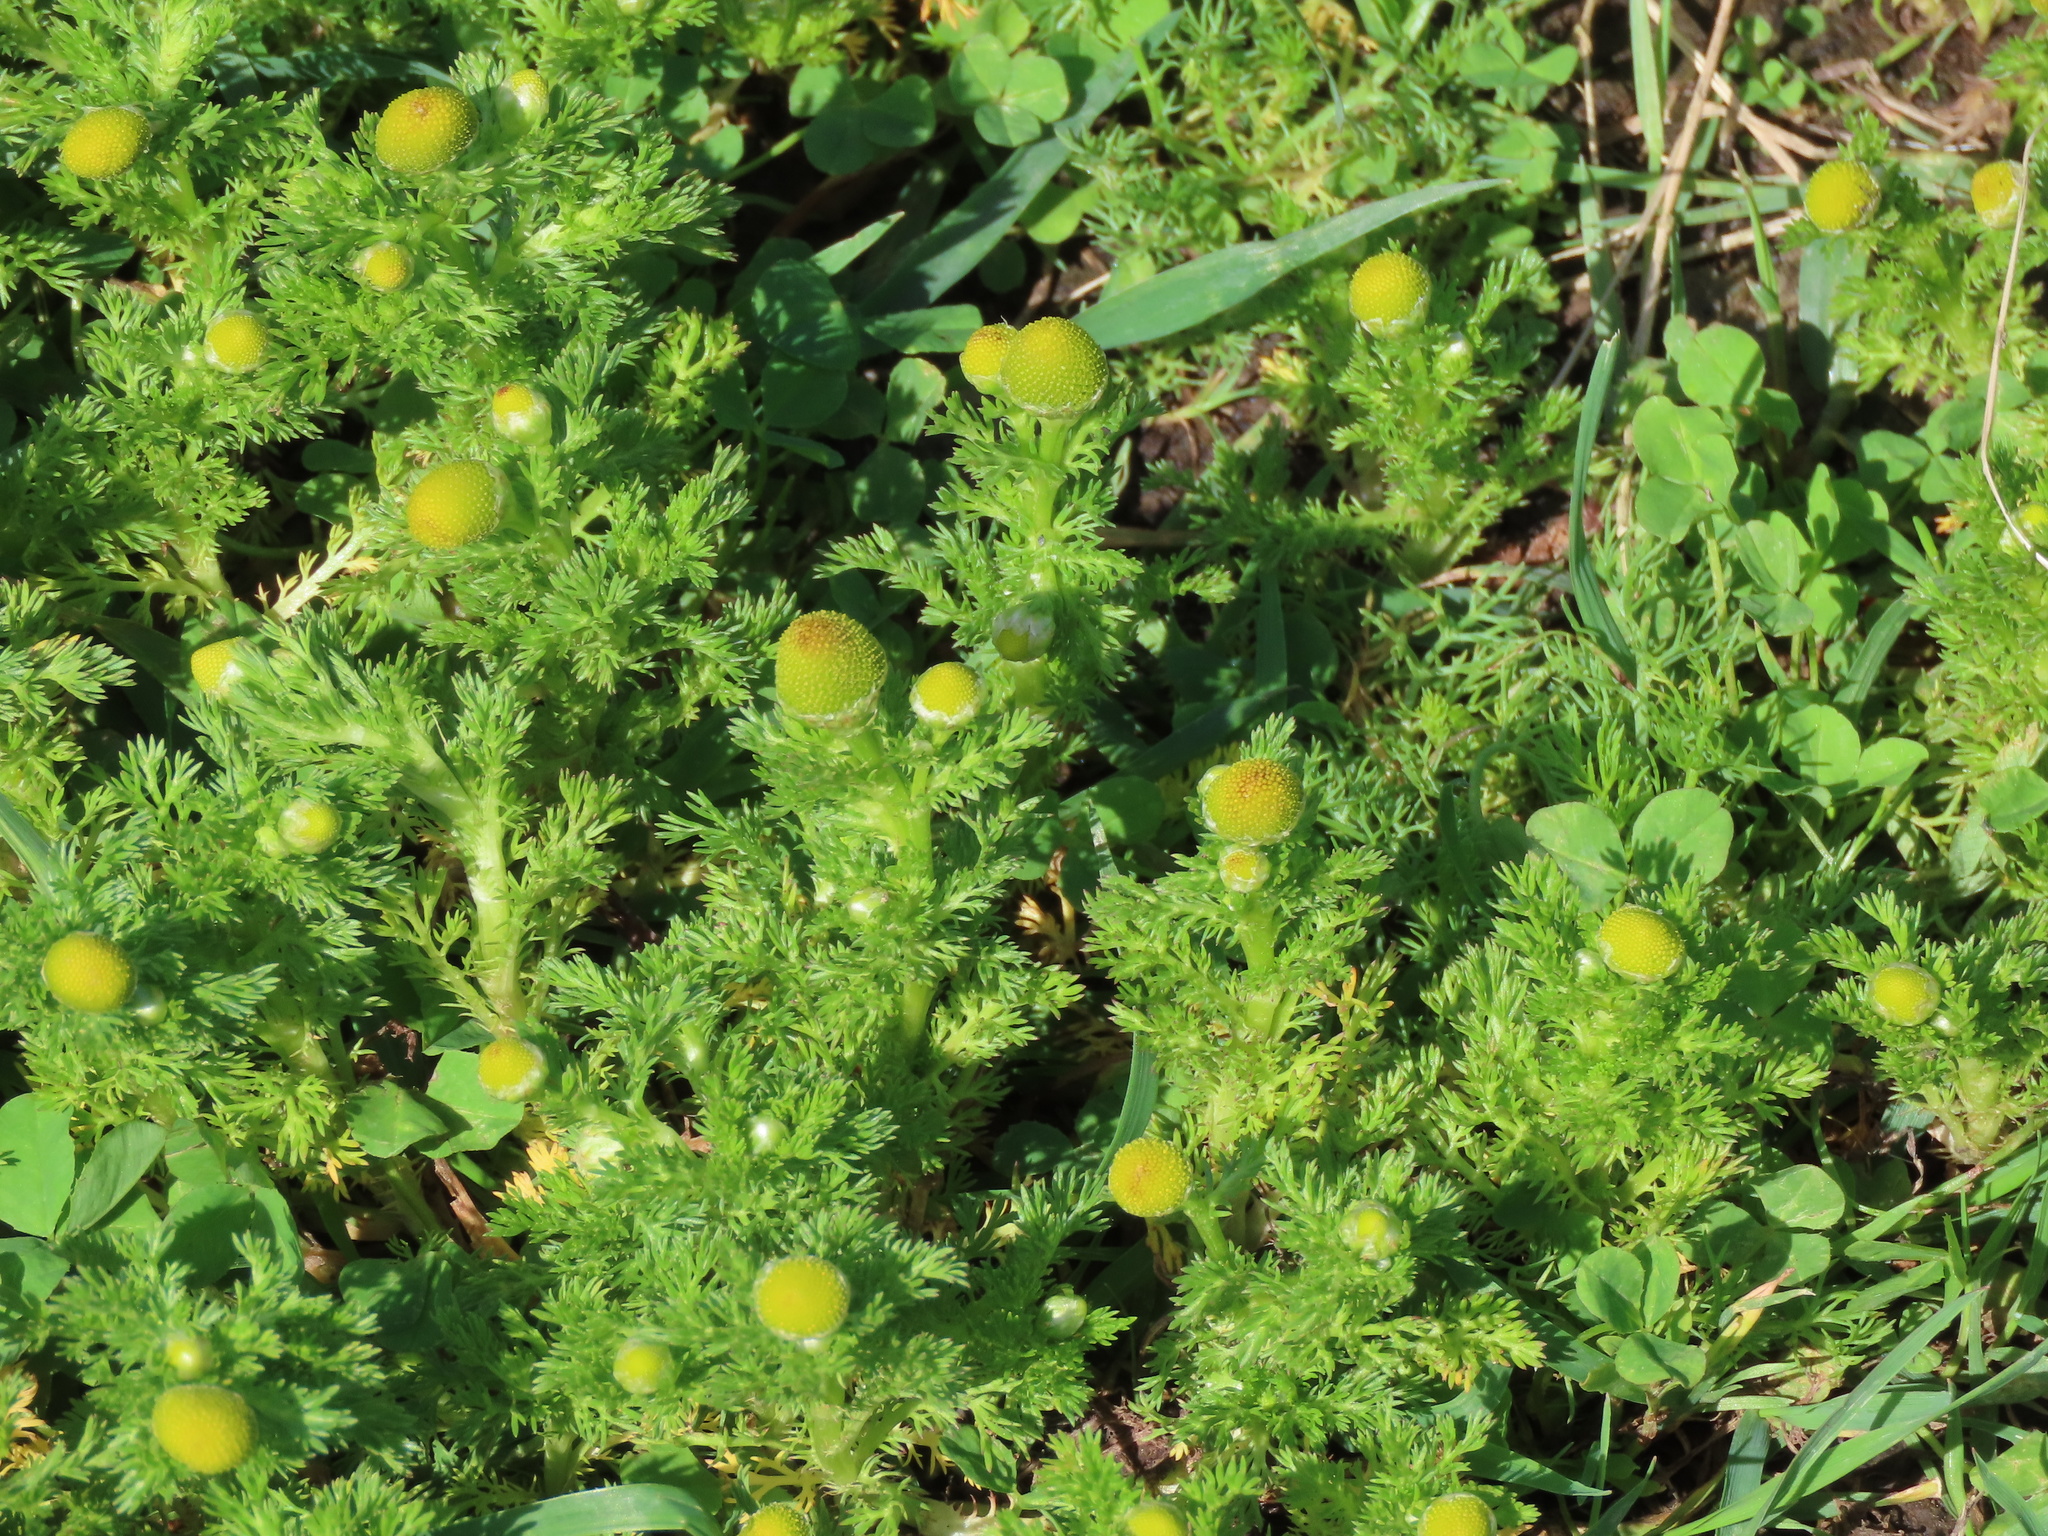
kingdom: Plantae
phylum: Tracheophyta
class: Magnoliopsida
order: Asterales
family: Asteraceae
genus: Matricaria
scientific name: Matricaria discoidea
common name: Disc mayweed
